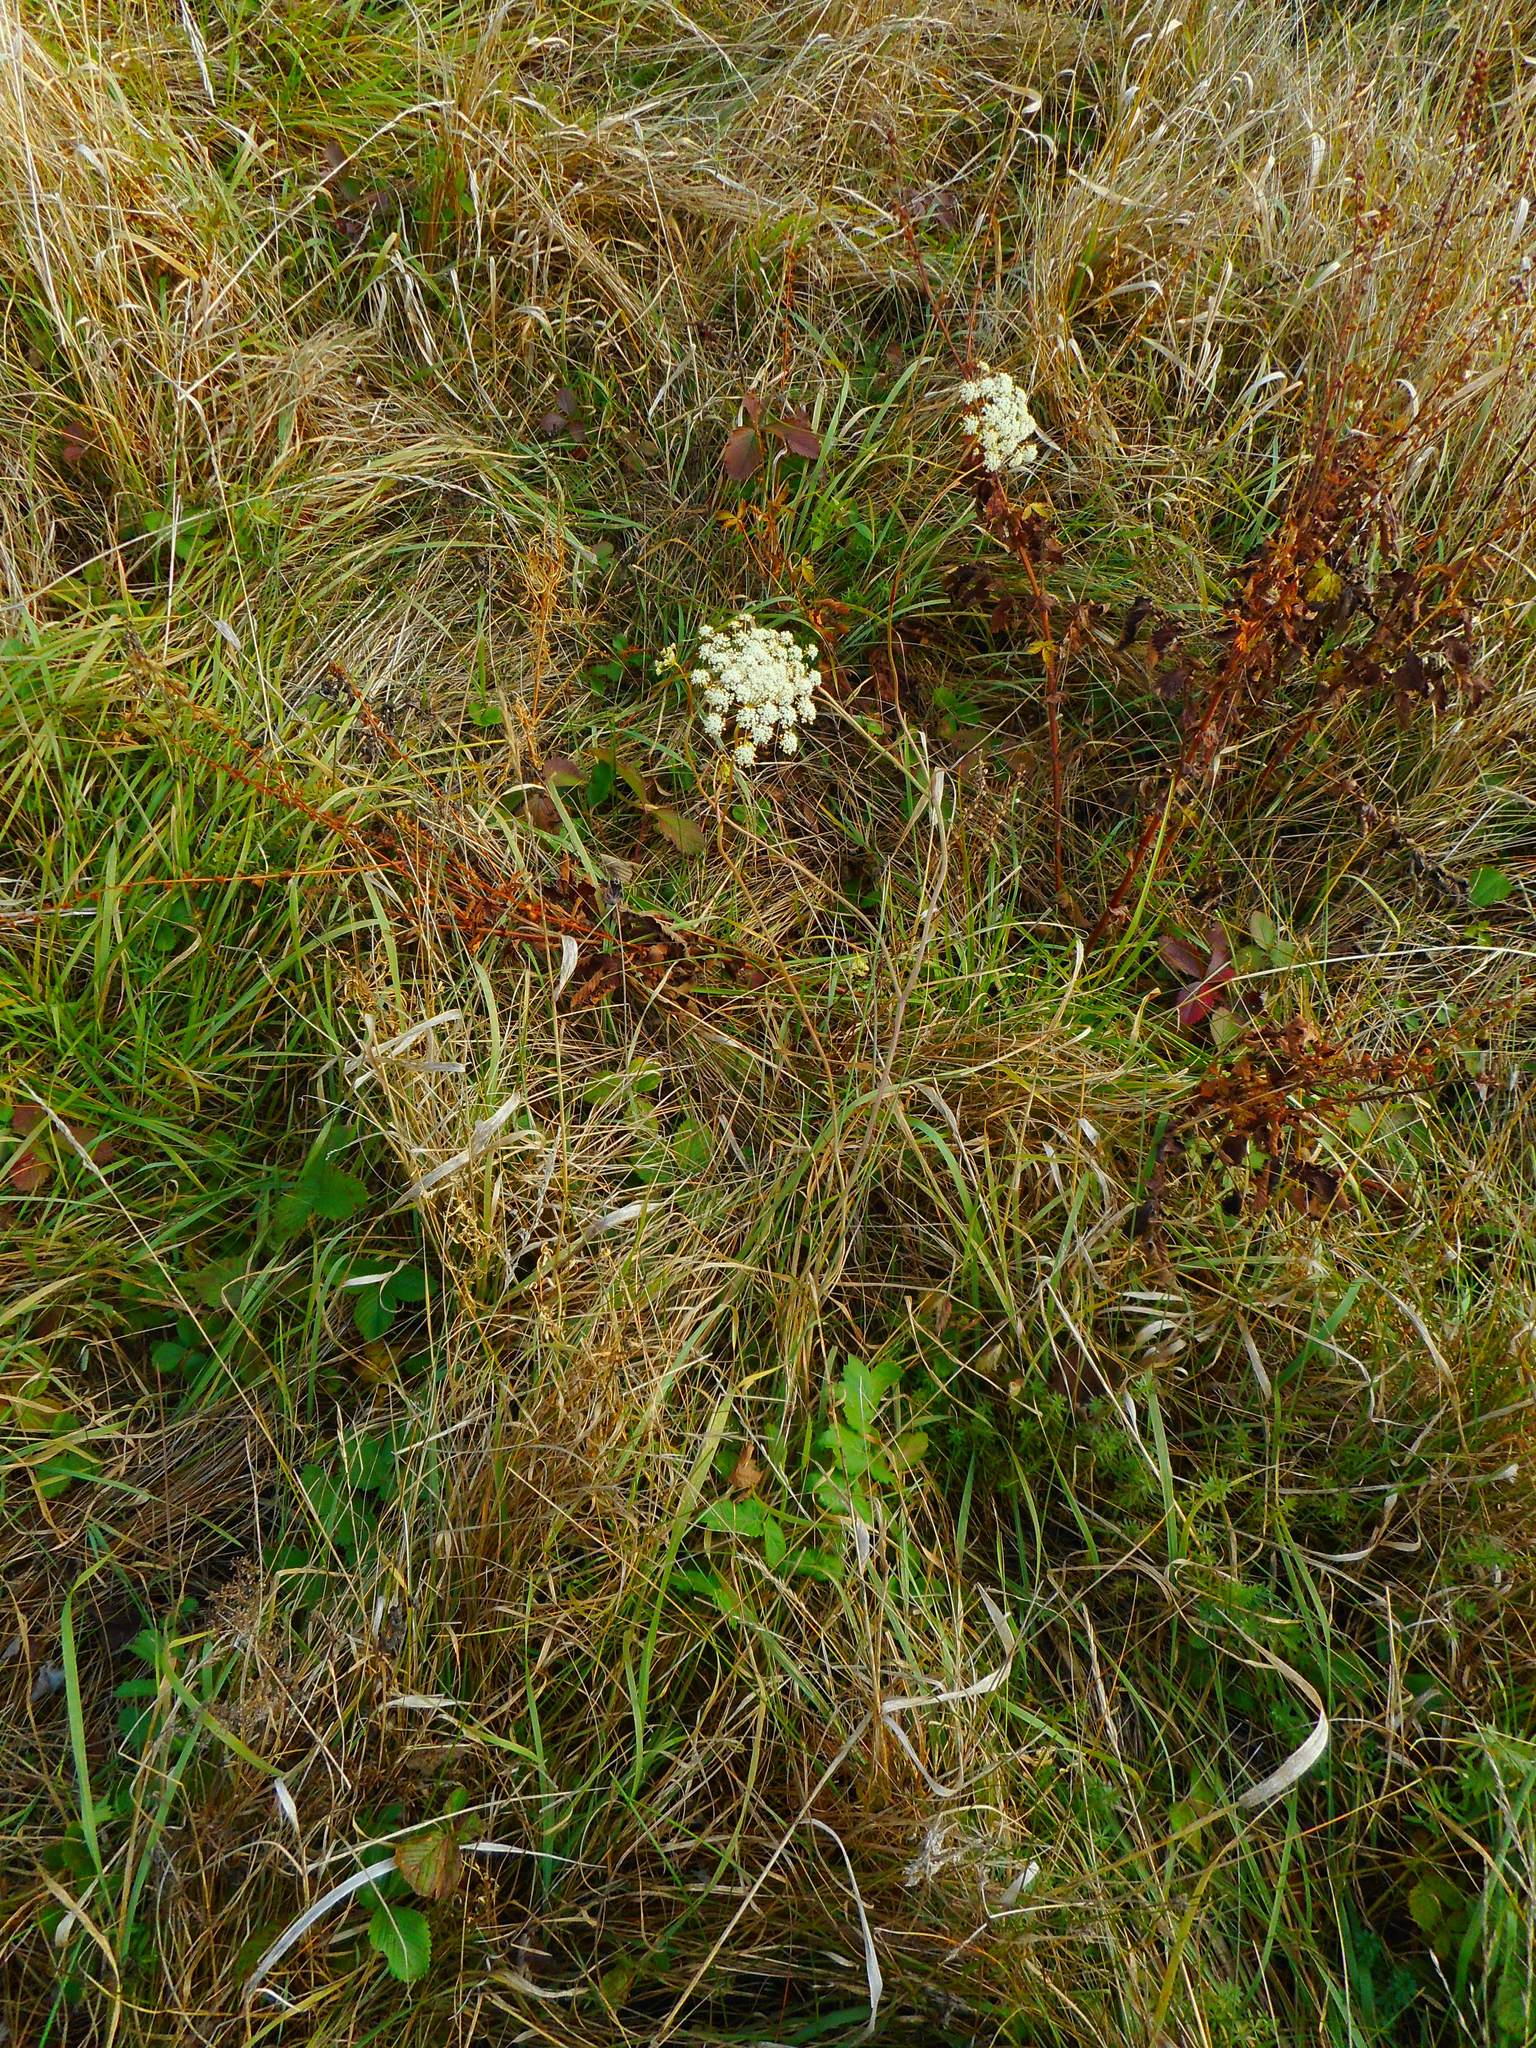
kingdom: Plantae
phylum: Tracheophyta
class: Magnoliopsida
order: Apiales
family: Apiaceae
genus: Pimpinella
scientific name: Pimpinella saxifraga
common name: Burnet-saxifrage
